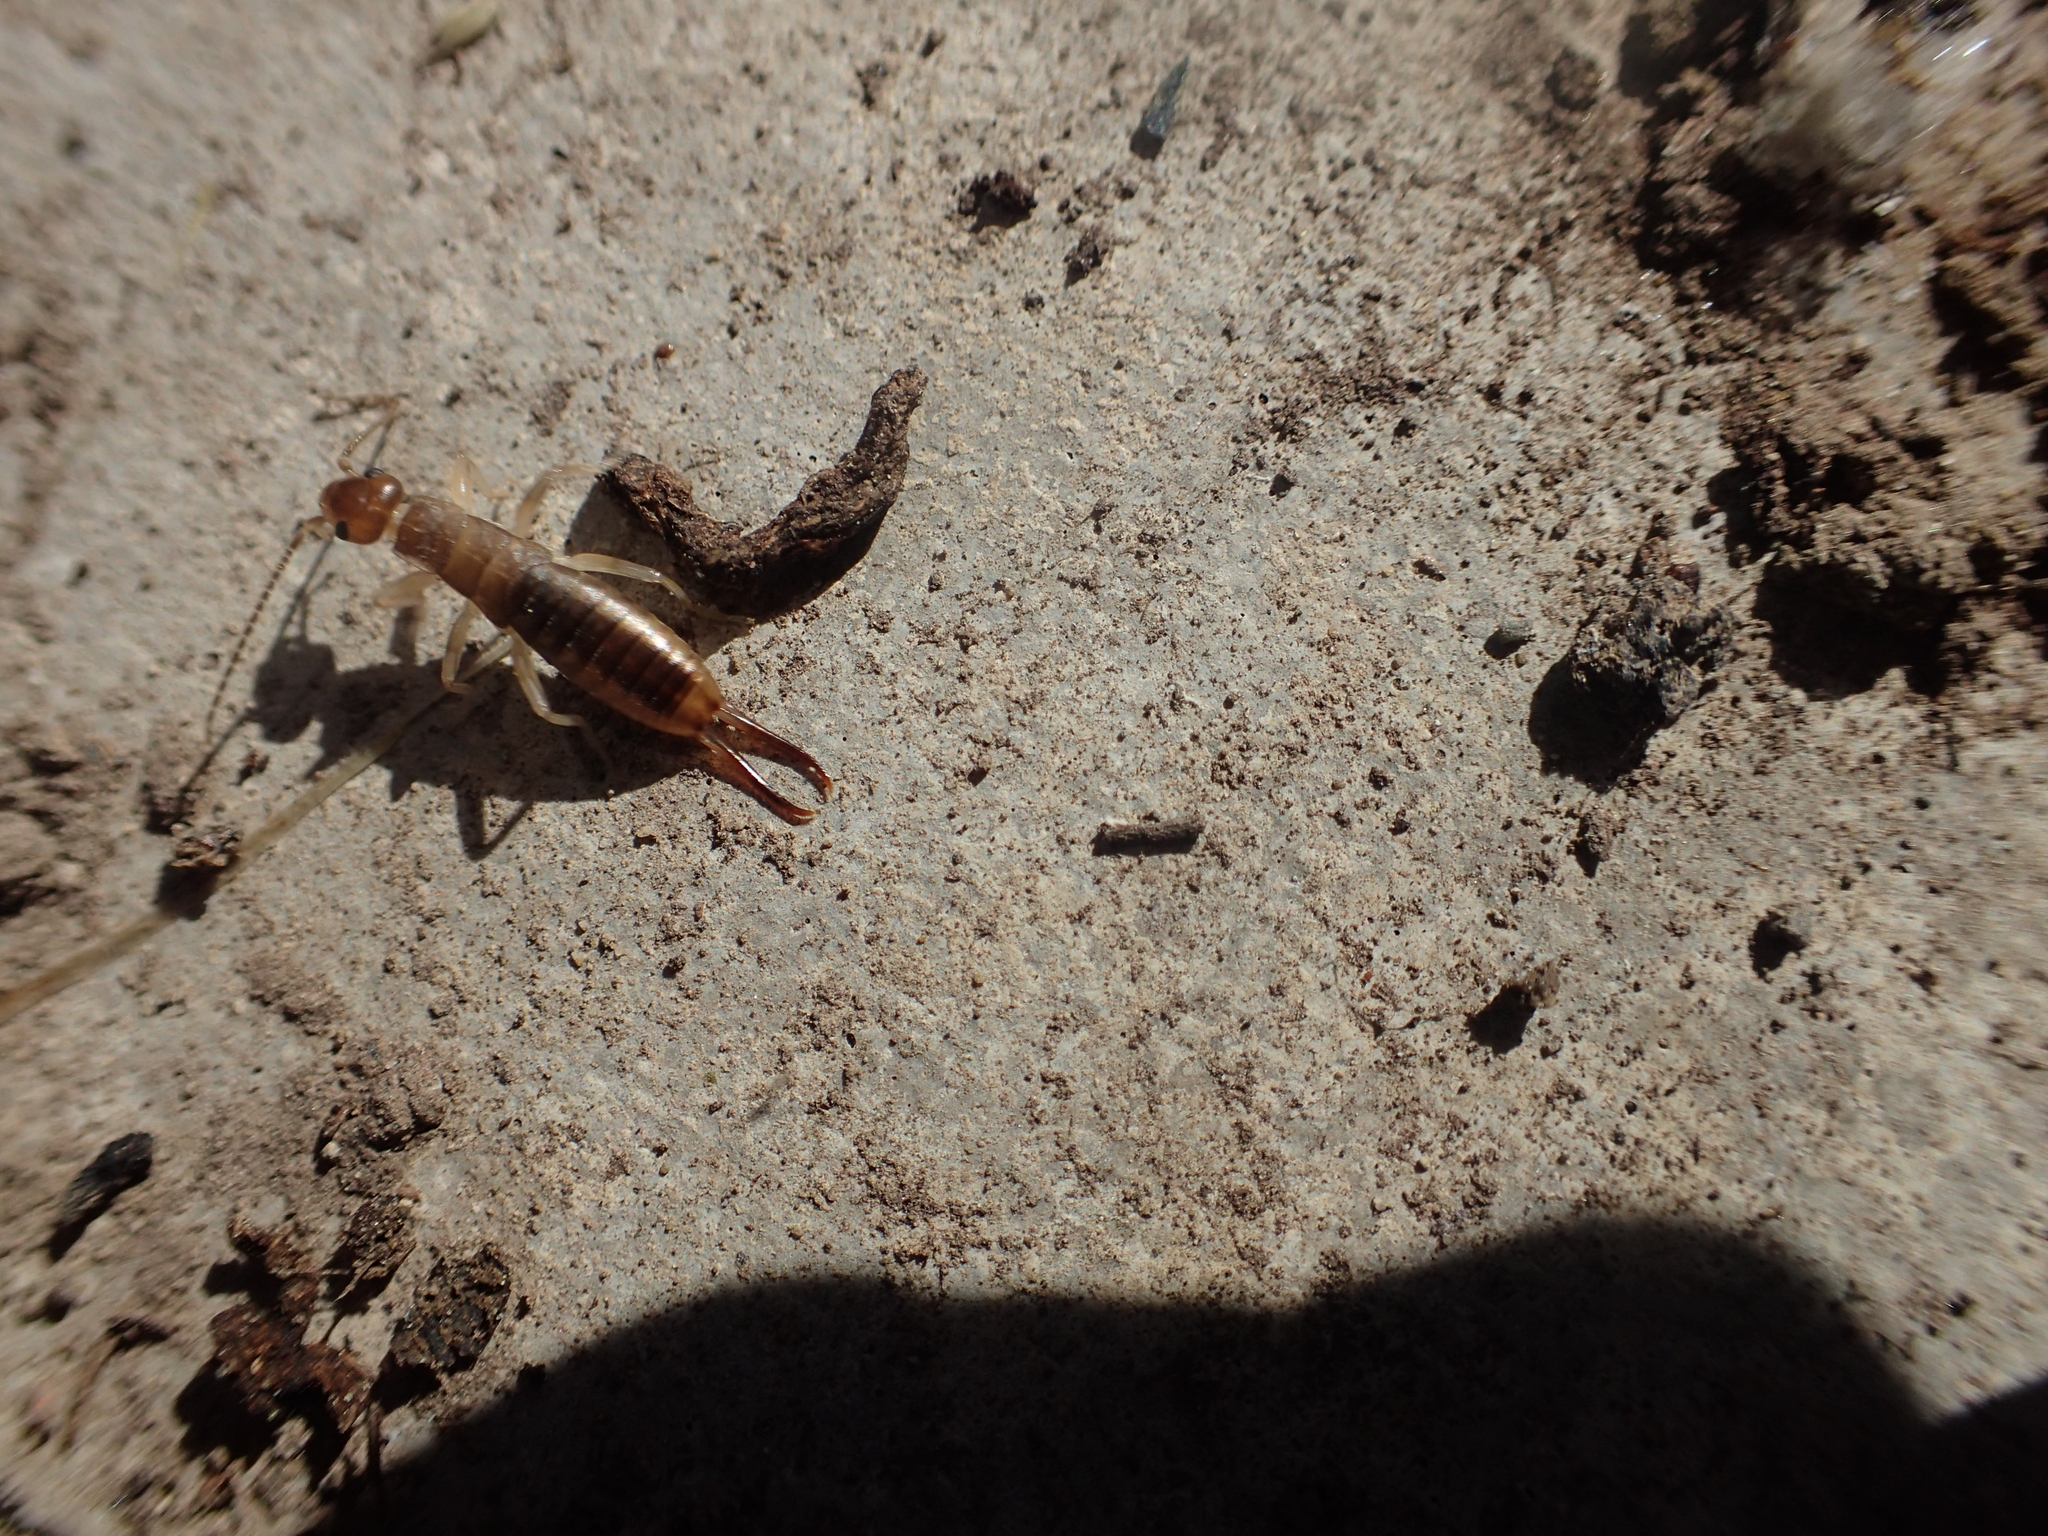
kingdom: Animalia
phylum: Arthropoda
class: Insecta
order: Dermaptera
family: Labiduridae
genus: Labidura
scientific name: Labidura riparia
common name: Striped earwig
